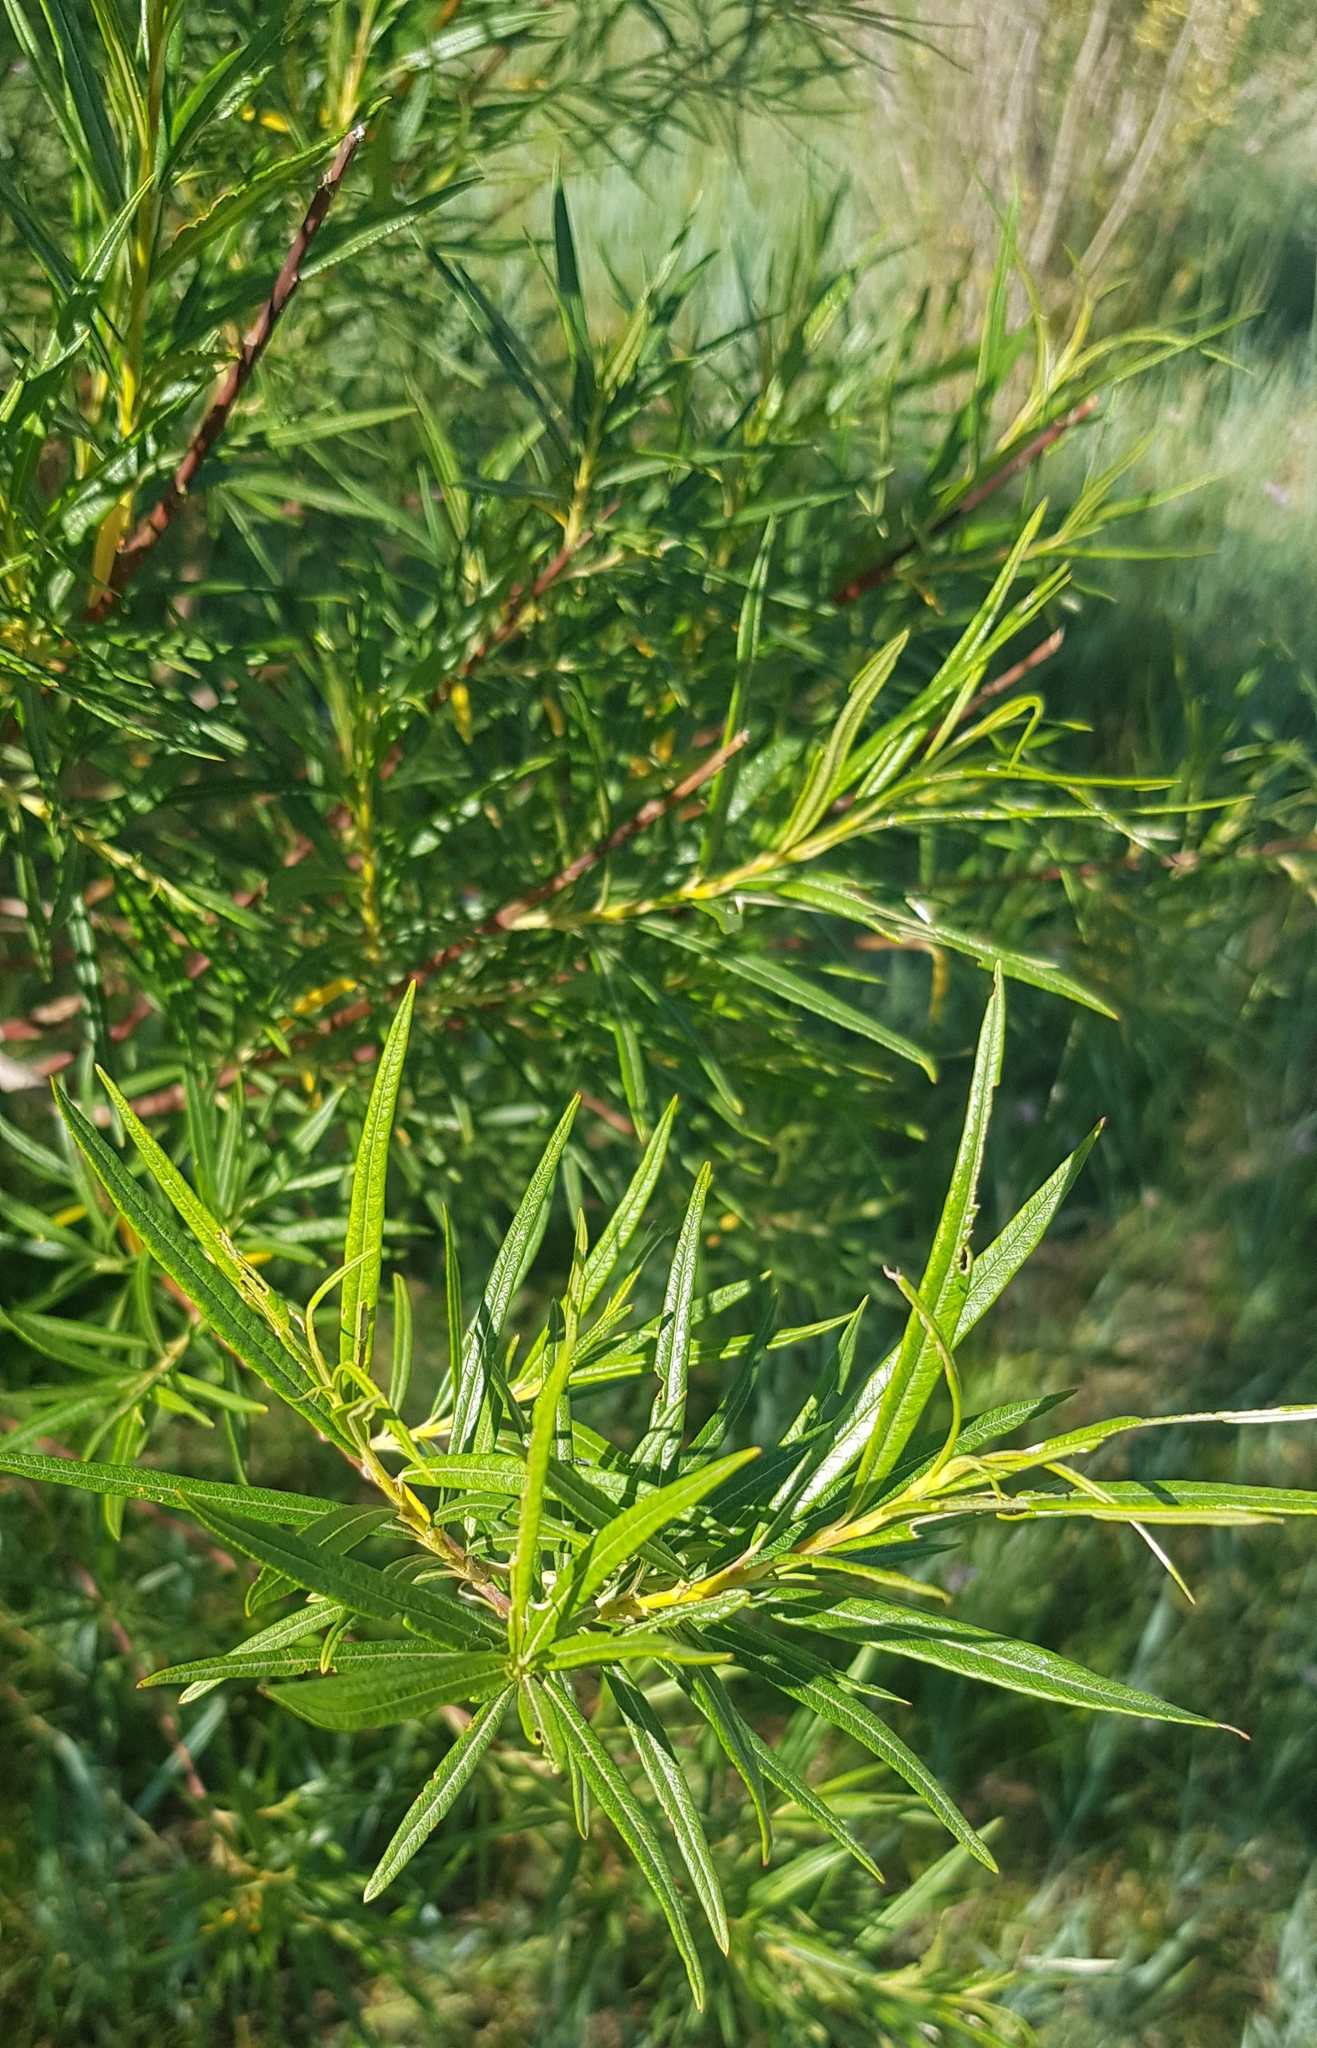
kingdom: Plantae
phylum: Tracheophyta
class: Magnoliopsida
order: Malpighiales
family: Salicaceae
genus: Salix
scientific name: Salix viminalis
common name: Osier
